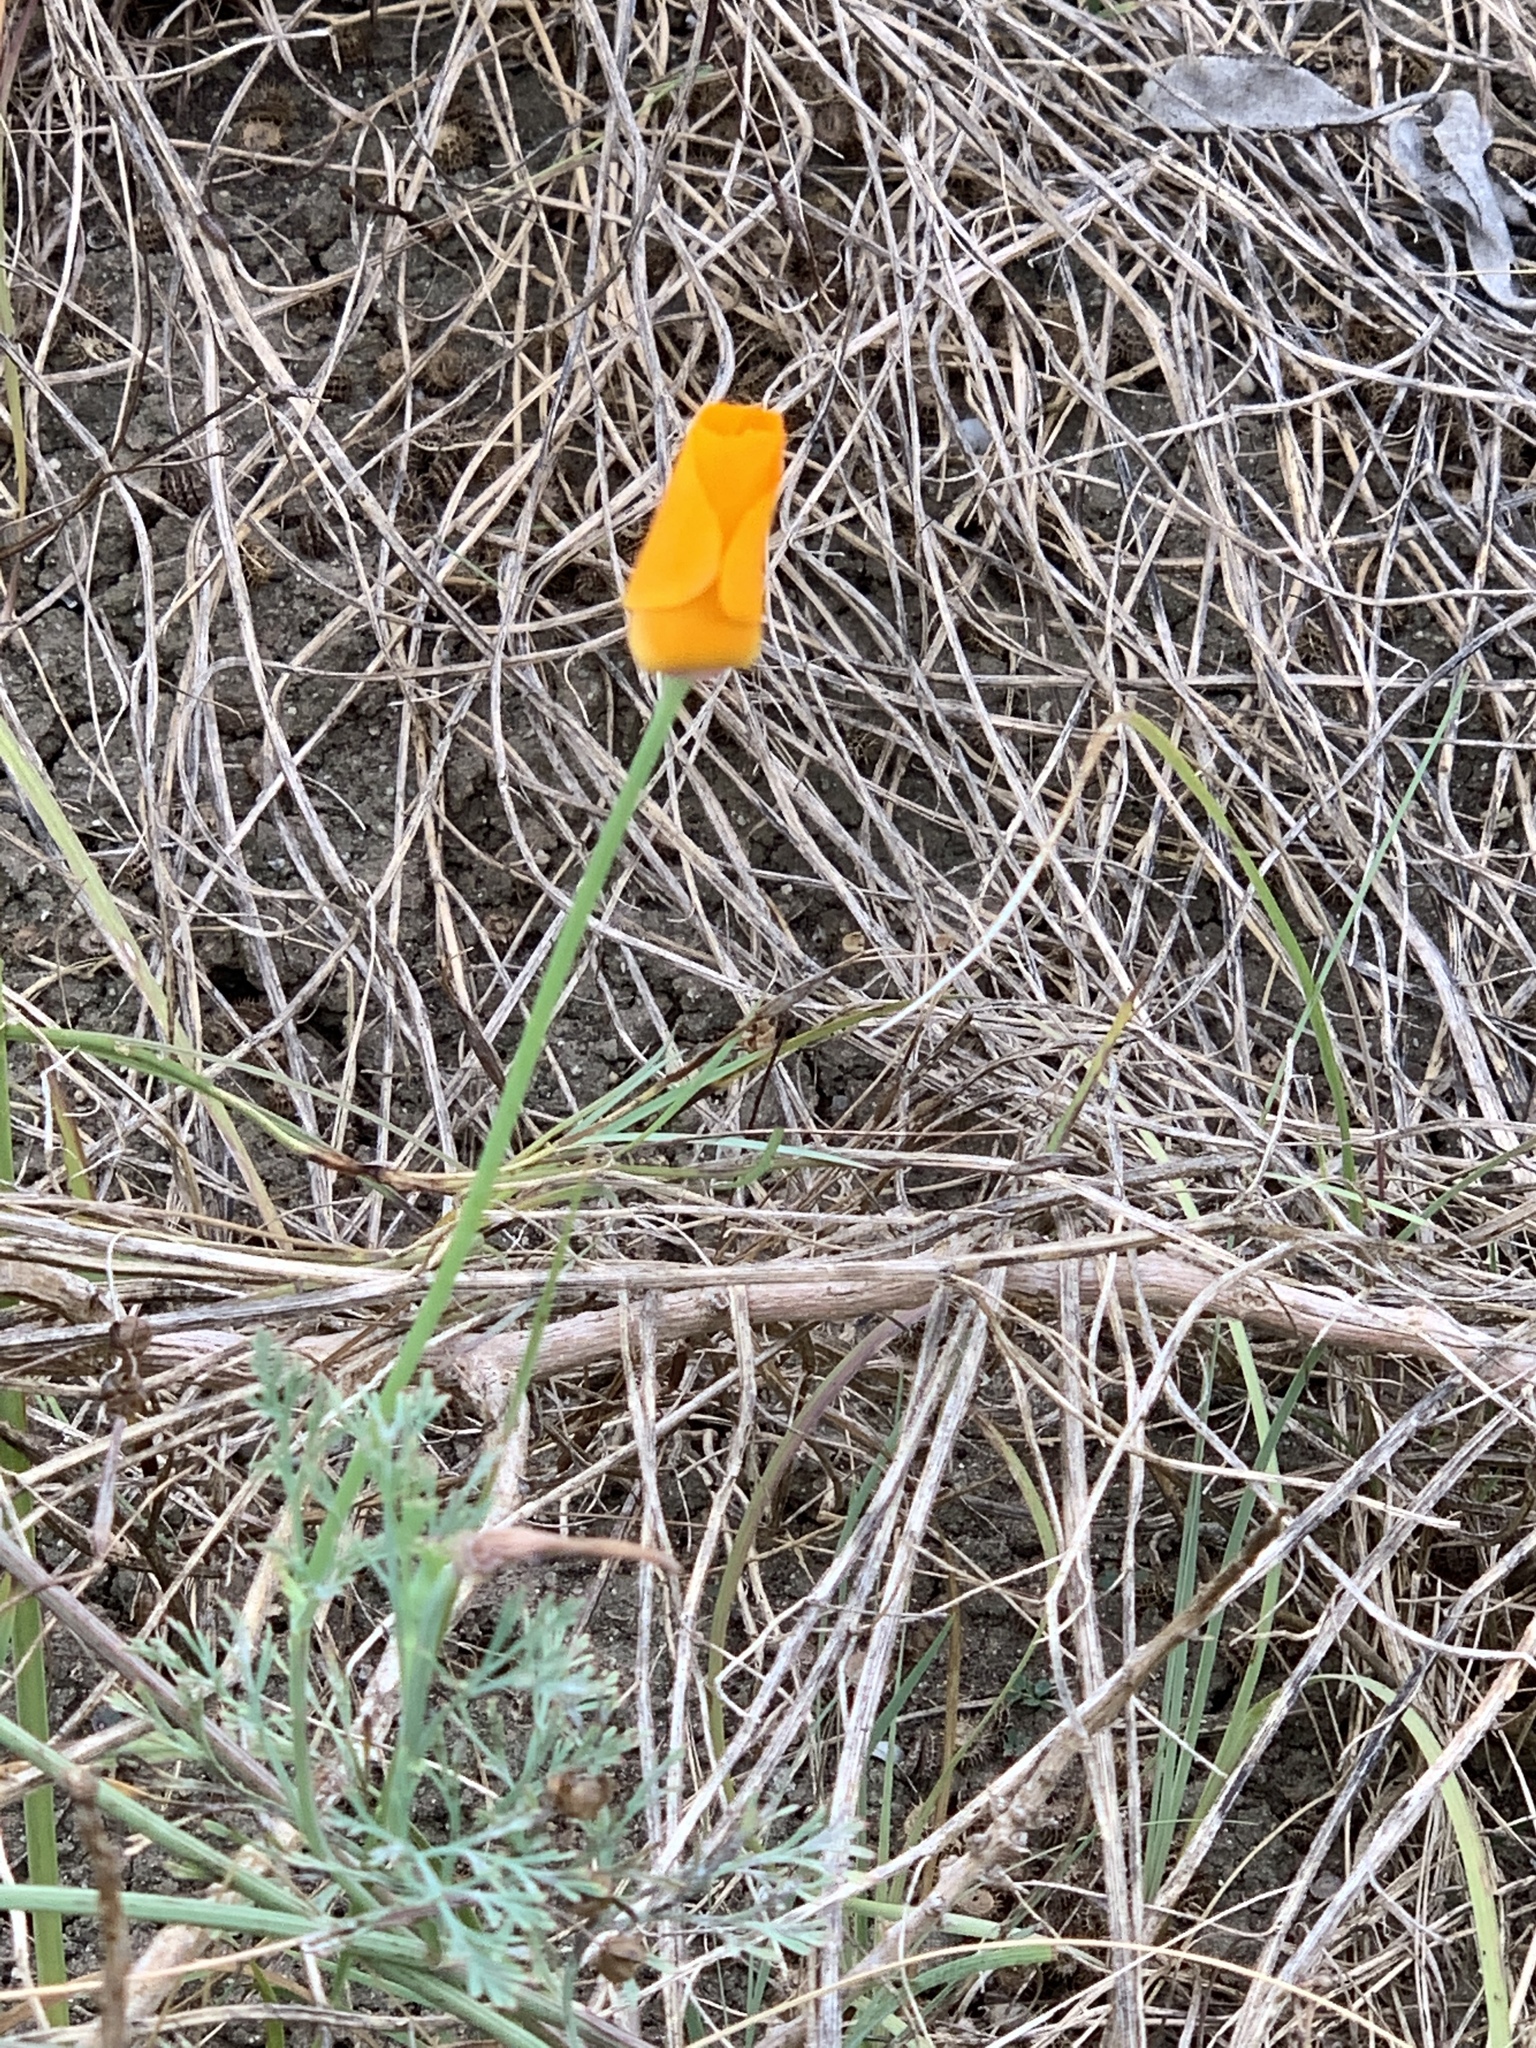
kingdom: Plantae
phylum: Tracheophyta
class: Magnoliopsida
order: Ranunculales
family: Papaveraceae
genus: Eschscholzia
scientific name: Eschscholzia californica
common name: California poppy
